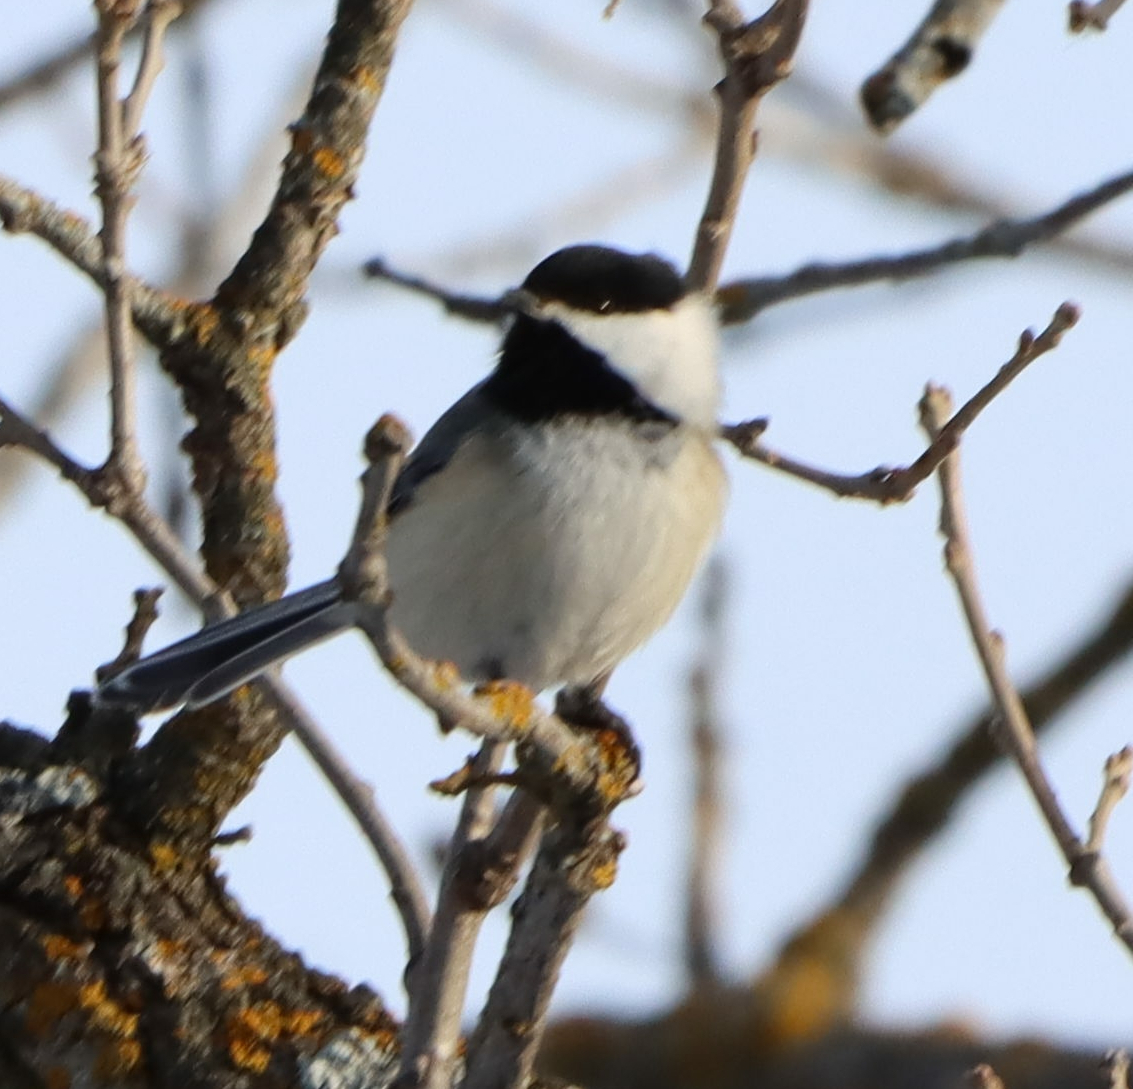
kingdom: Animalia
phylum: Chordata
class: Aves
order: Passeriformes
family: Paridae
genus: Poecile
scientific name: Poecile atricapillus
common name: Black-capped chickadee
